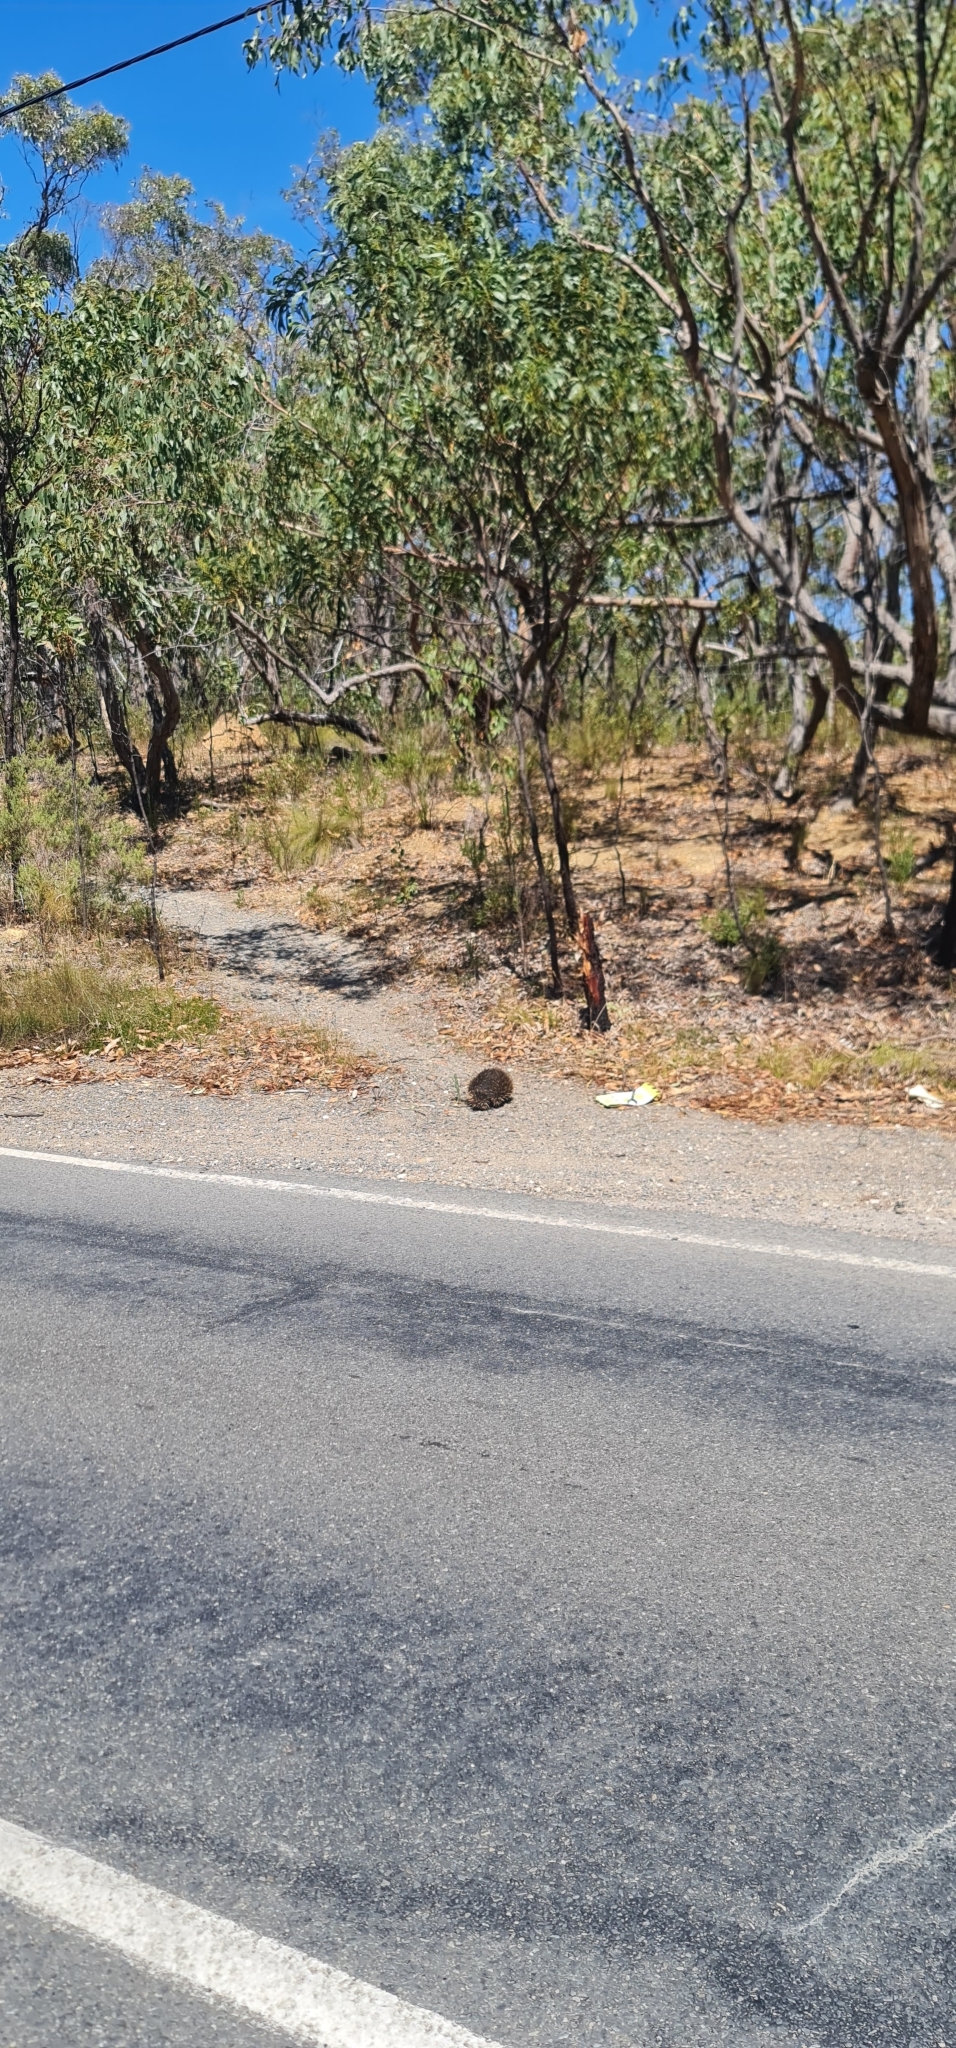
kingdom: Animalia
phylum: Chordata
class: Mammalia
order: Monotremata
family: Tachyglossidae
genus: Tachyglossus
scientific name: Tachyglossus aculeatus
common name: Short-beaked echidna
